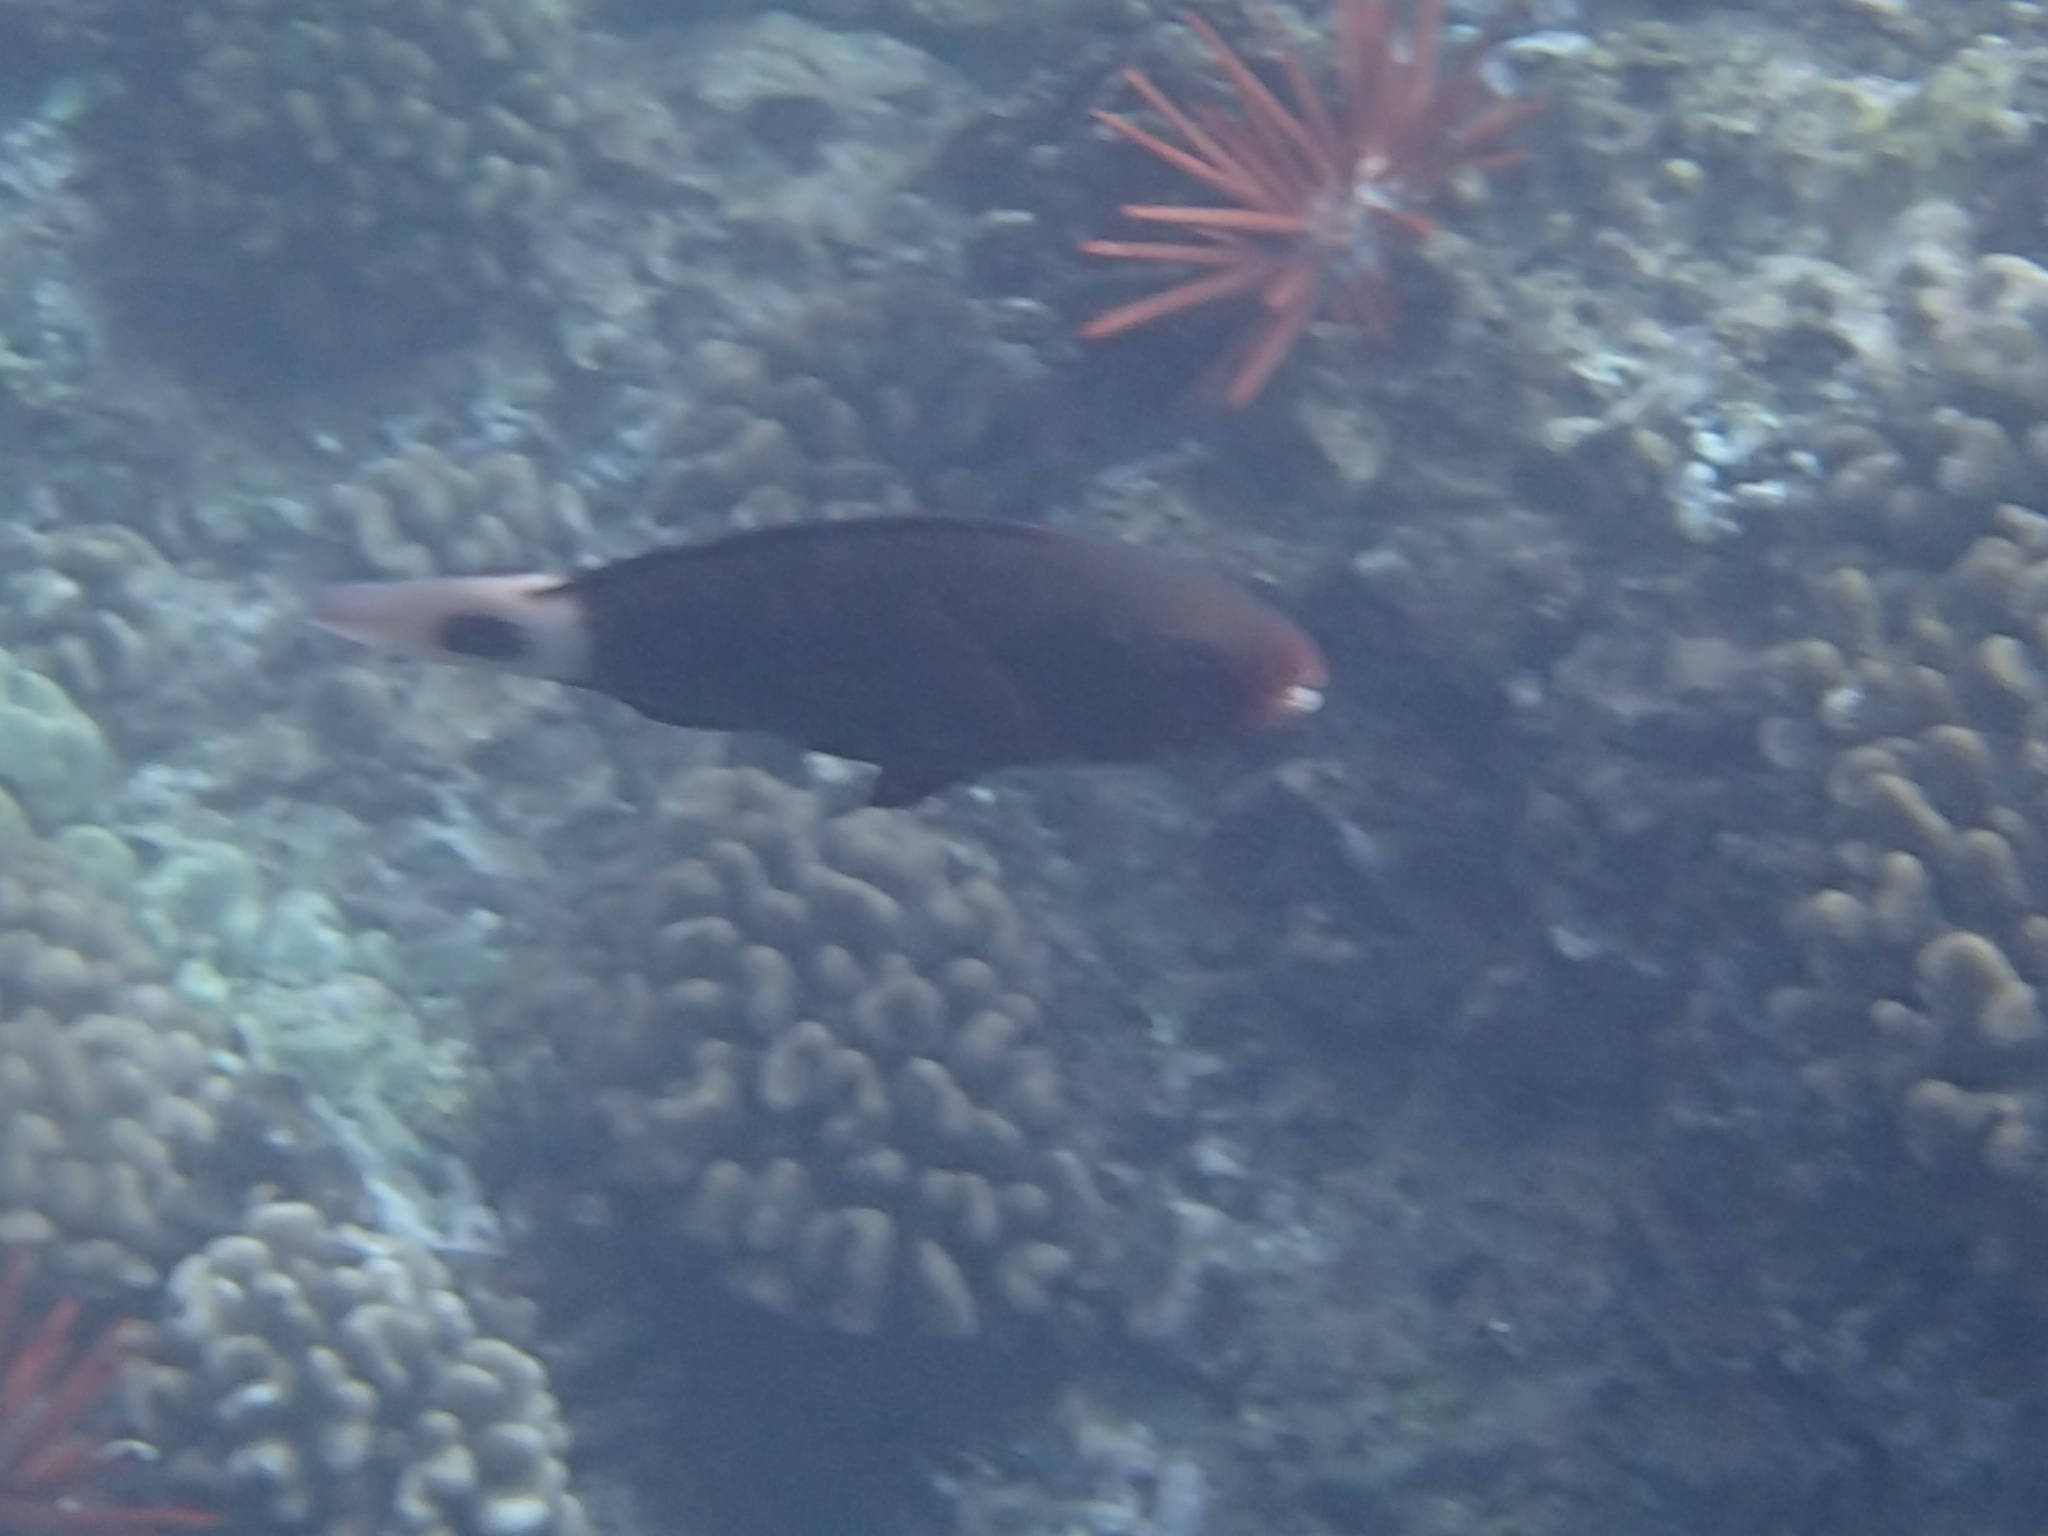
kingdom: Animalia
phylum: Chordata
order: Perciformes
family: Scaridae
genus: Chlorurus
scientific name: Chlorurus spilurus
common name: Bullethead parrotfish
